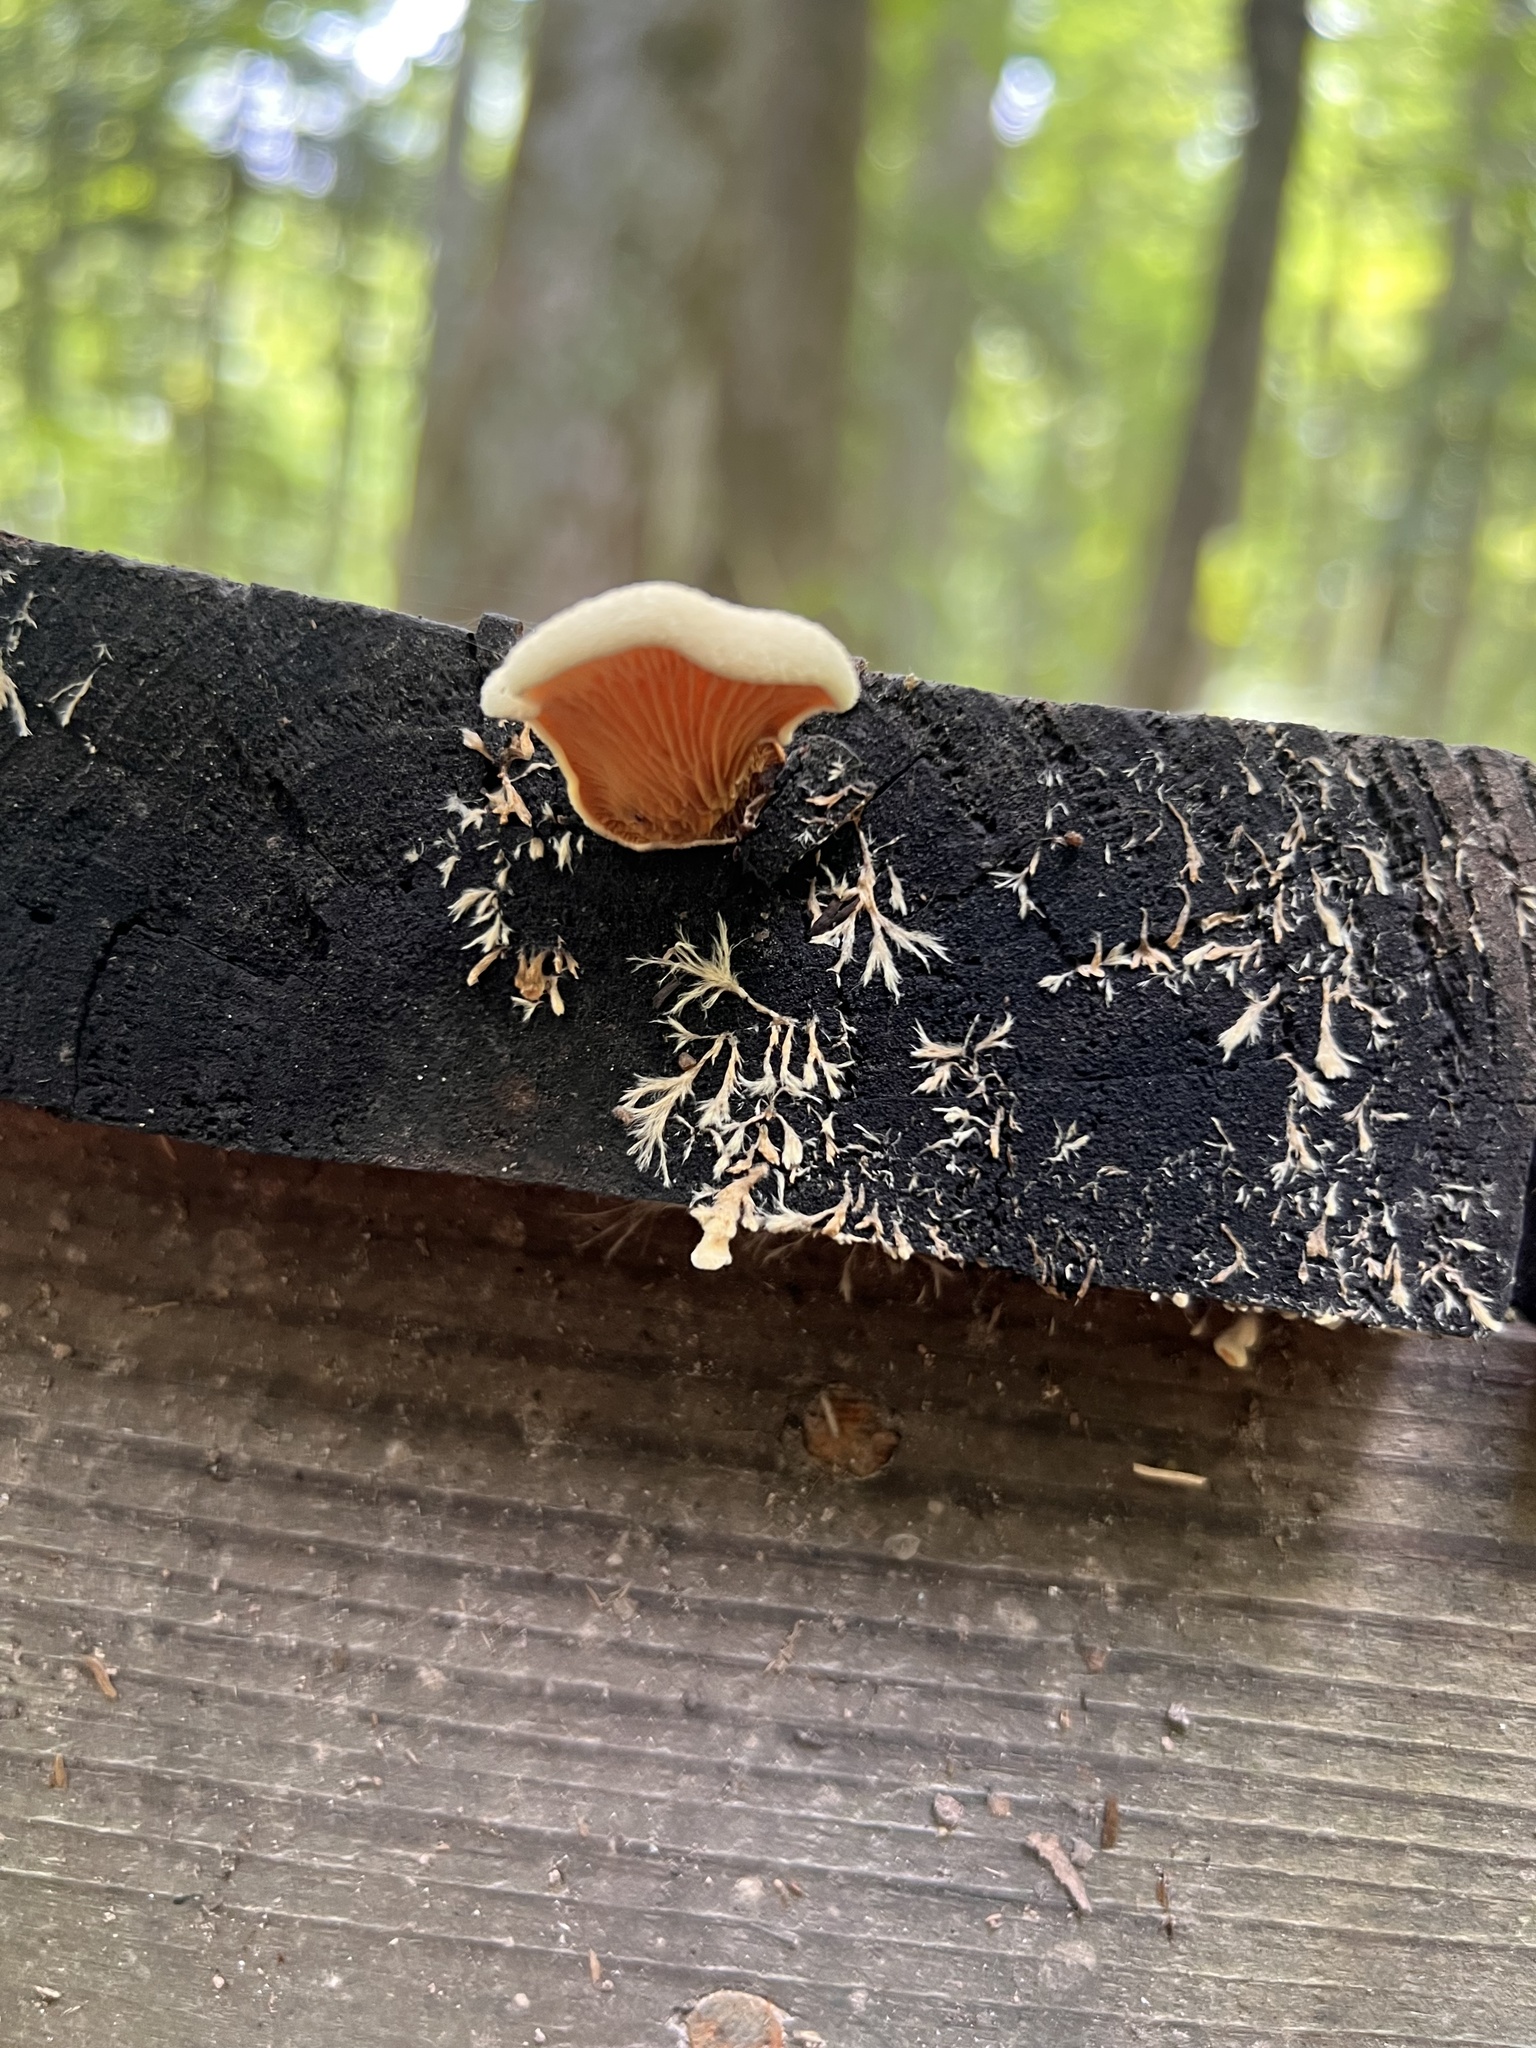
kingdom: Fungi
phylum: Basidiomycota
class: Agaricomycetes
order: Boletales
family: Tapinellaceae
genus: Tapinella
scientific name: Tapinella panuoides
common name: Oyster rollrim
